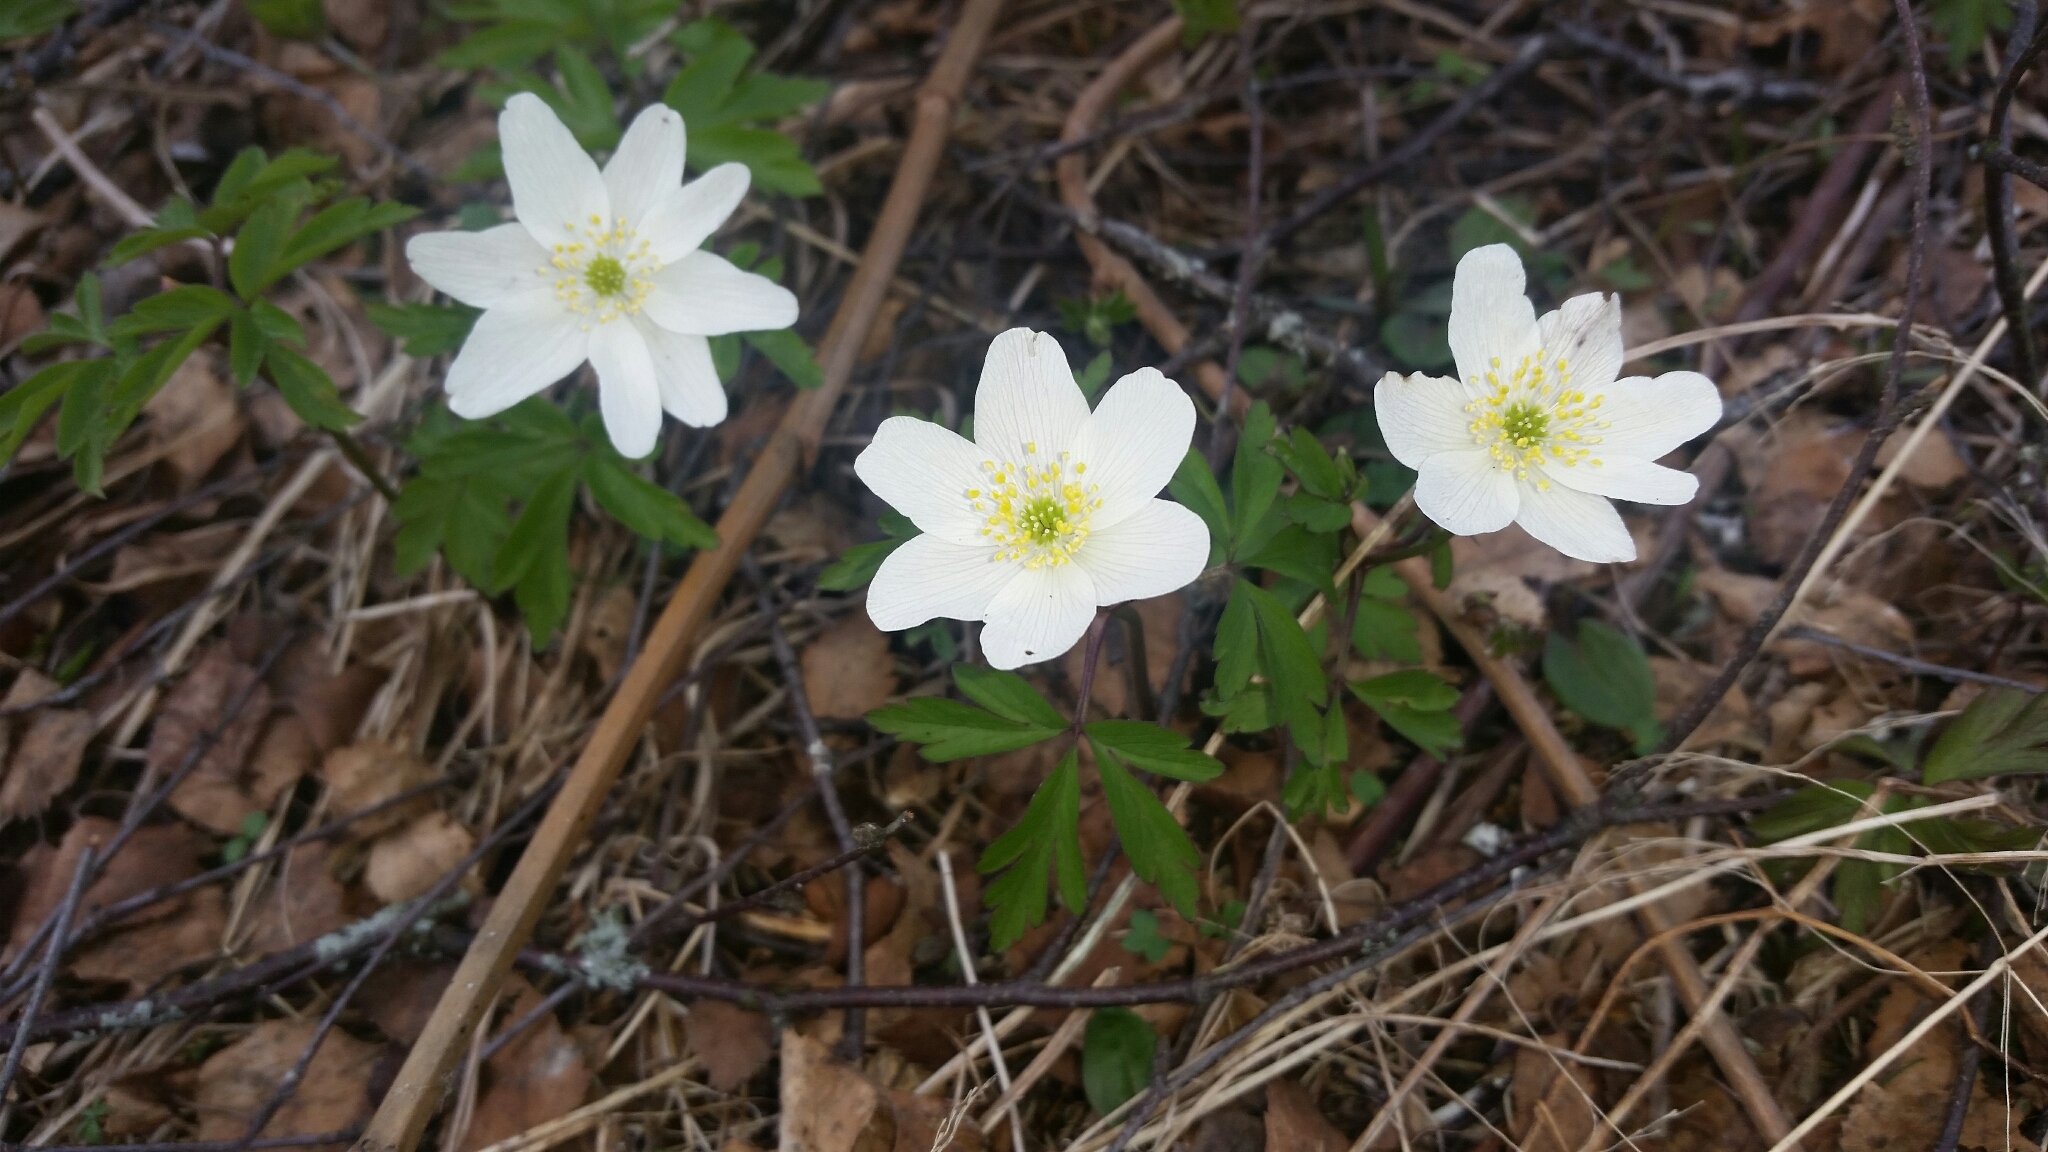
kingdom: Plantae
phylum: Tracheophyta
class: Magnoliopsida
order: Ranunculales
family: Ranunculaceae
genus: Anemone
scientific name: Anemone nemorosa
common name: Wood anemone
